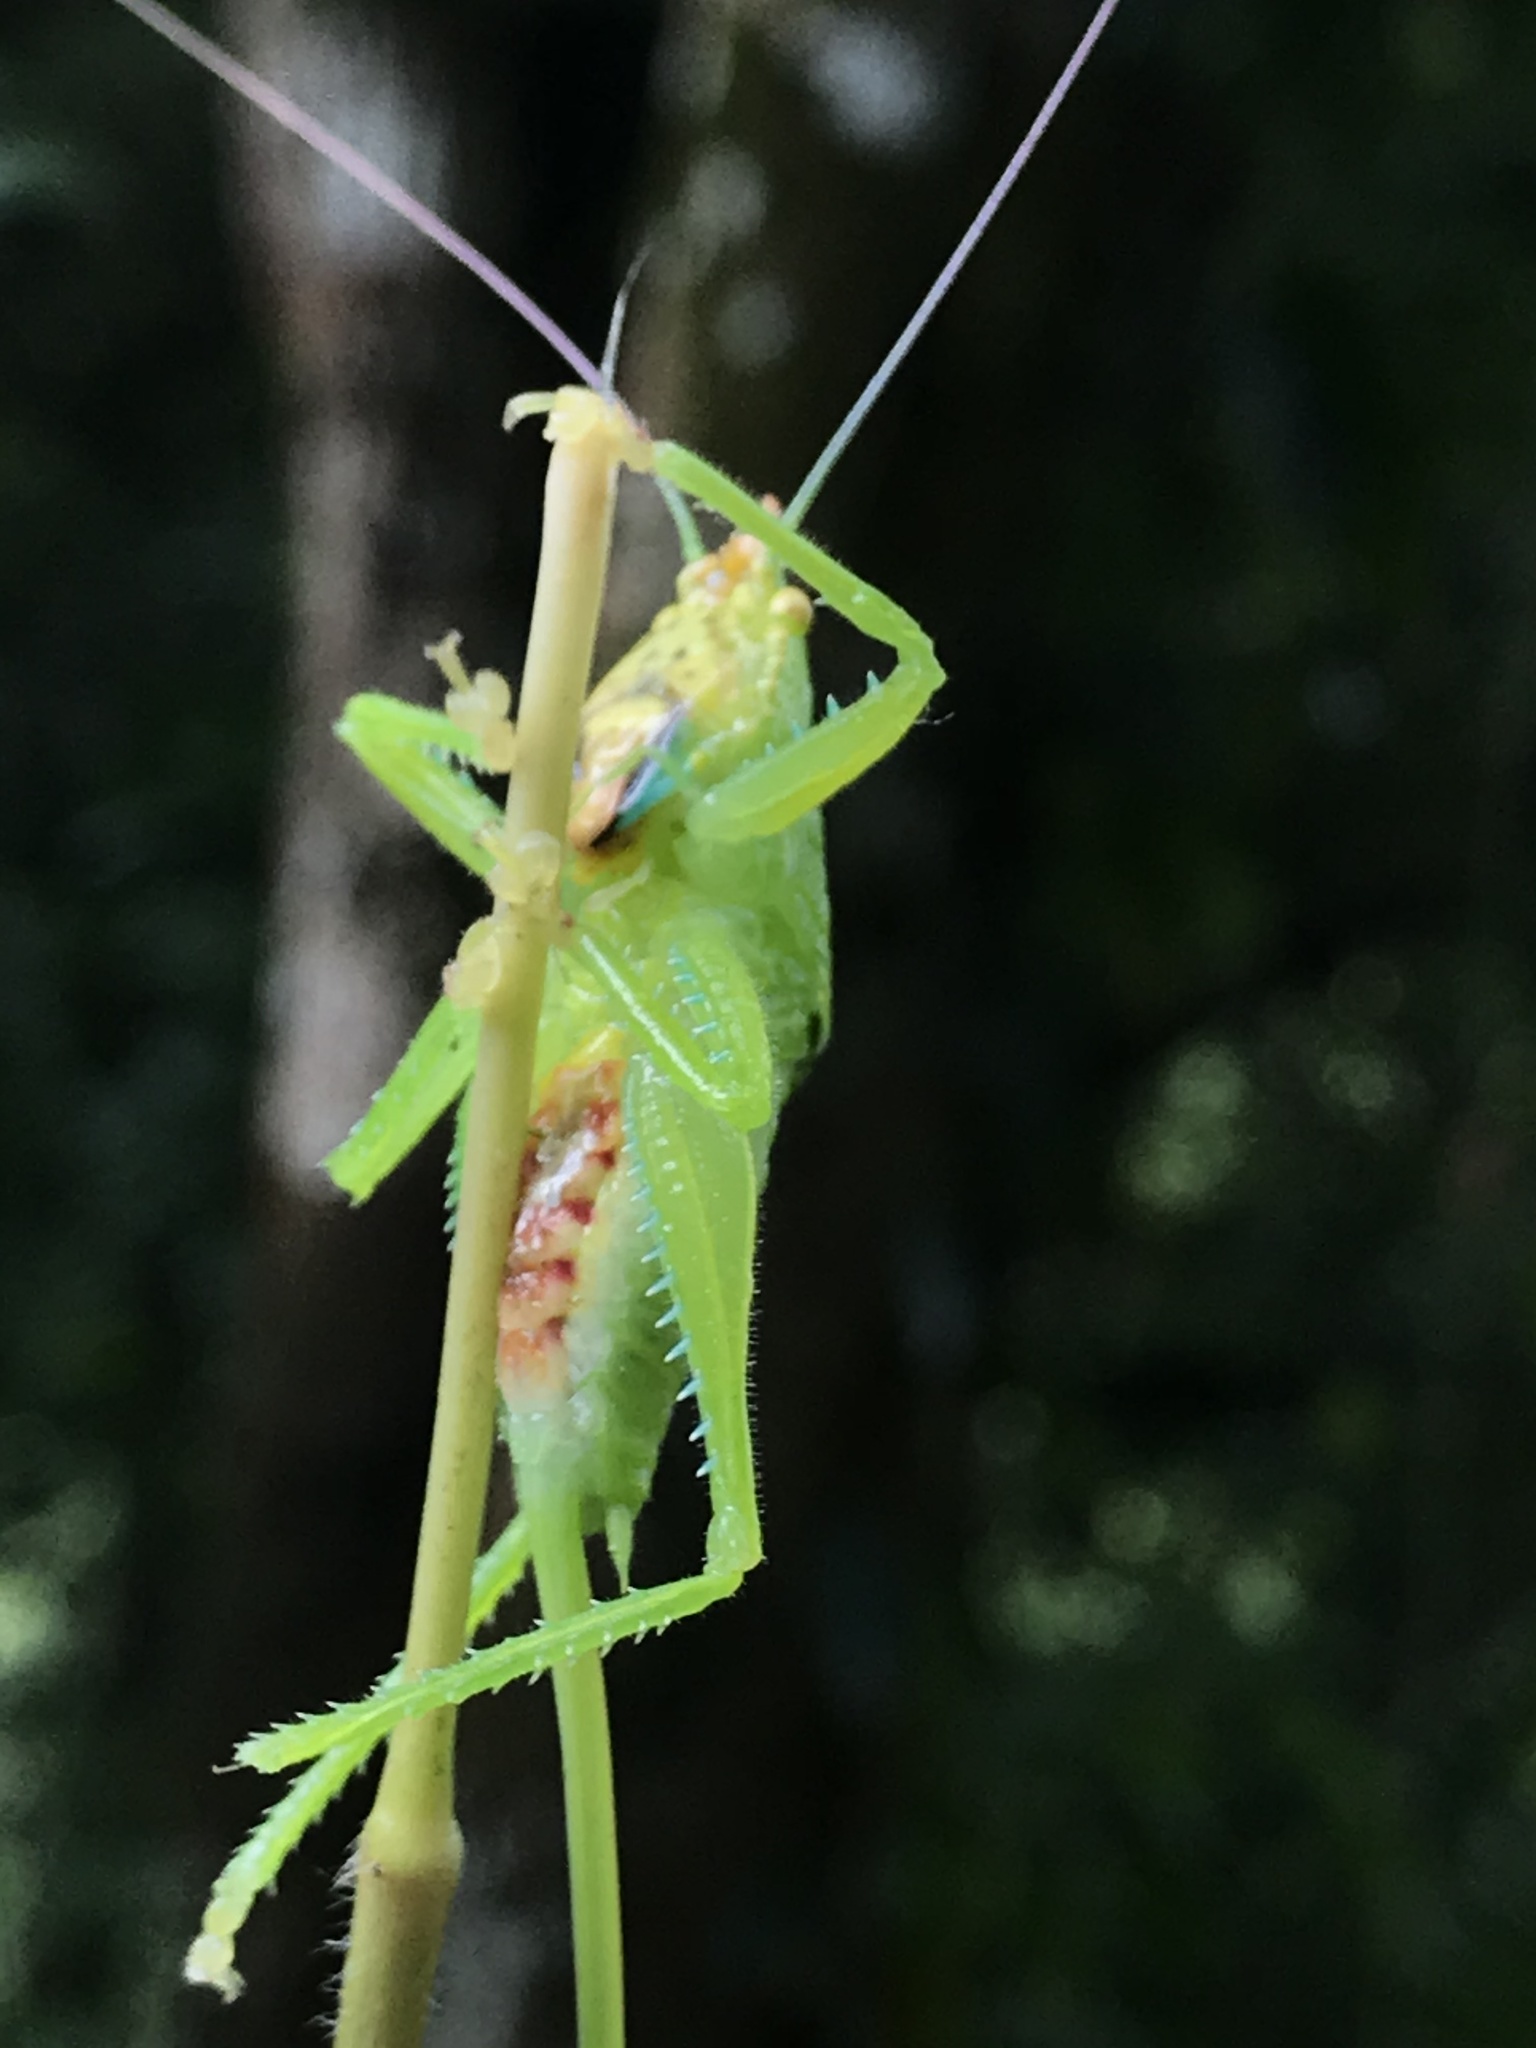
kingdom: Animalia
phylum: Arthropoda
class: Insecta
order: Orthoptera
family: Tettigoniidae
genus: Copiphora
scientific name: Copiphora vigorosa
